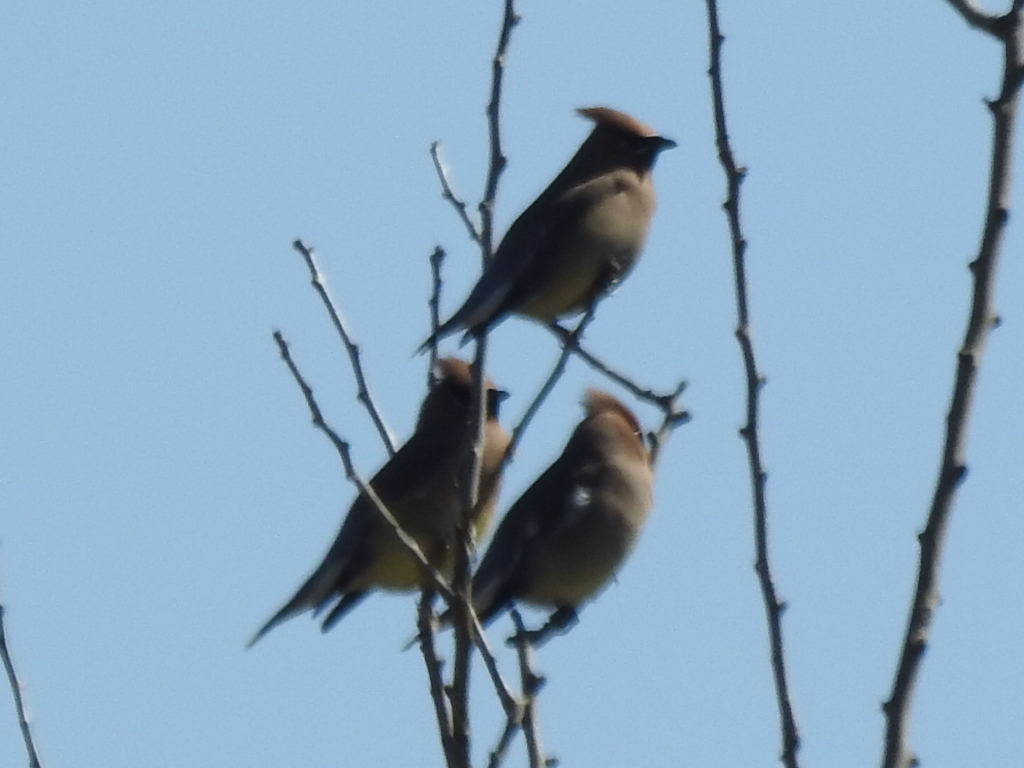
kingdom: Animalia
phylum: Chordata
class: Aves
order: Passeriformes
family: Bombycillidae
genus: Bombycilla
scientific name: Bombycilla cedrorum
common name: Cedar waxwing
